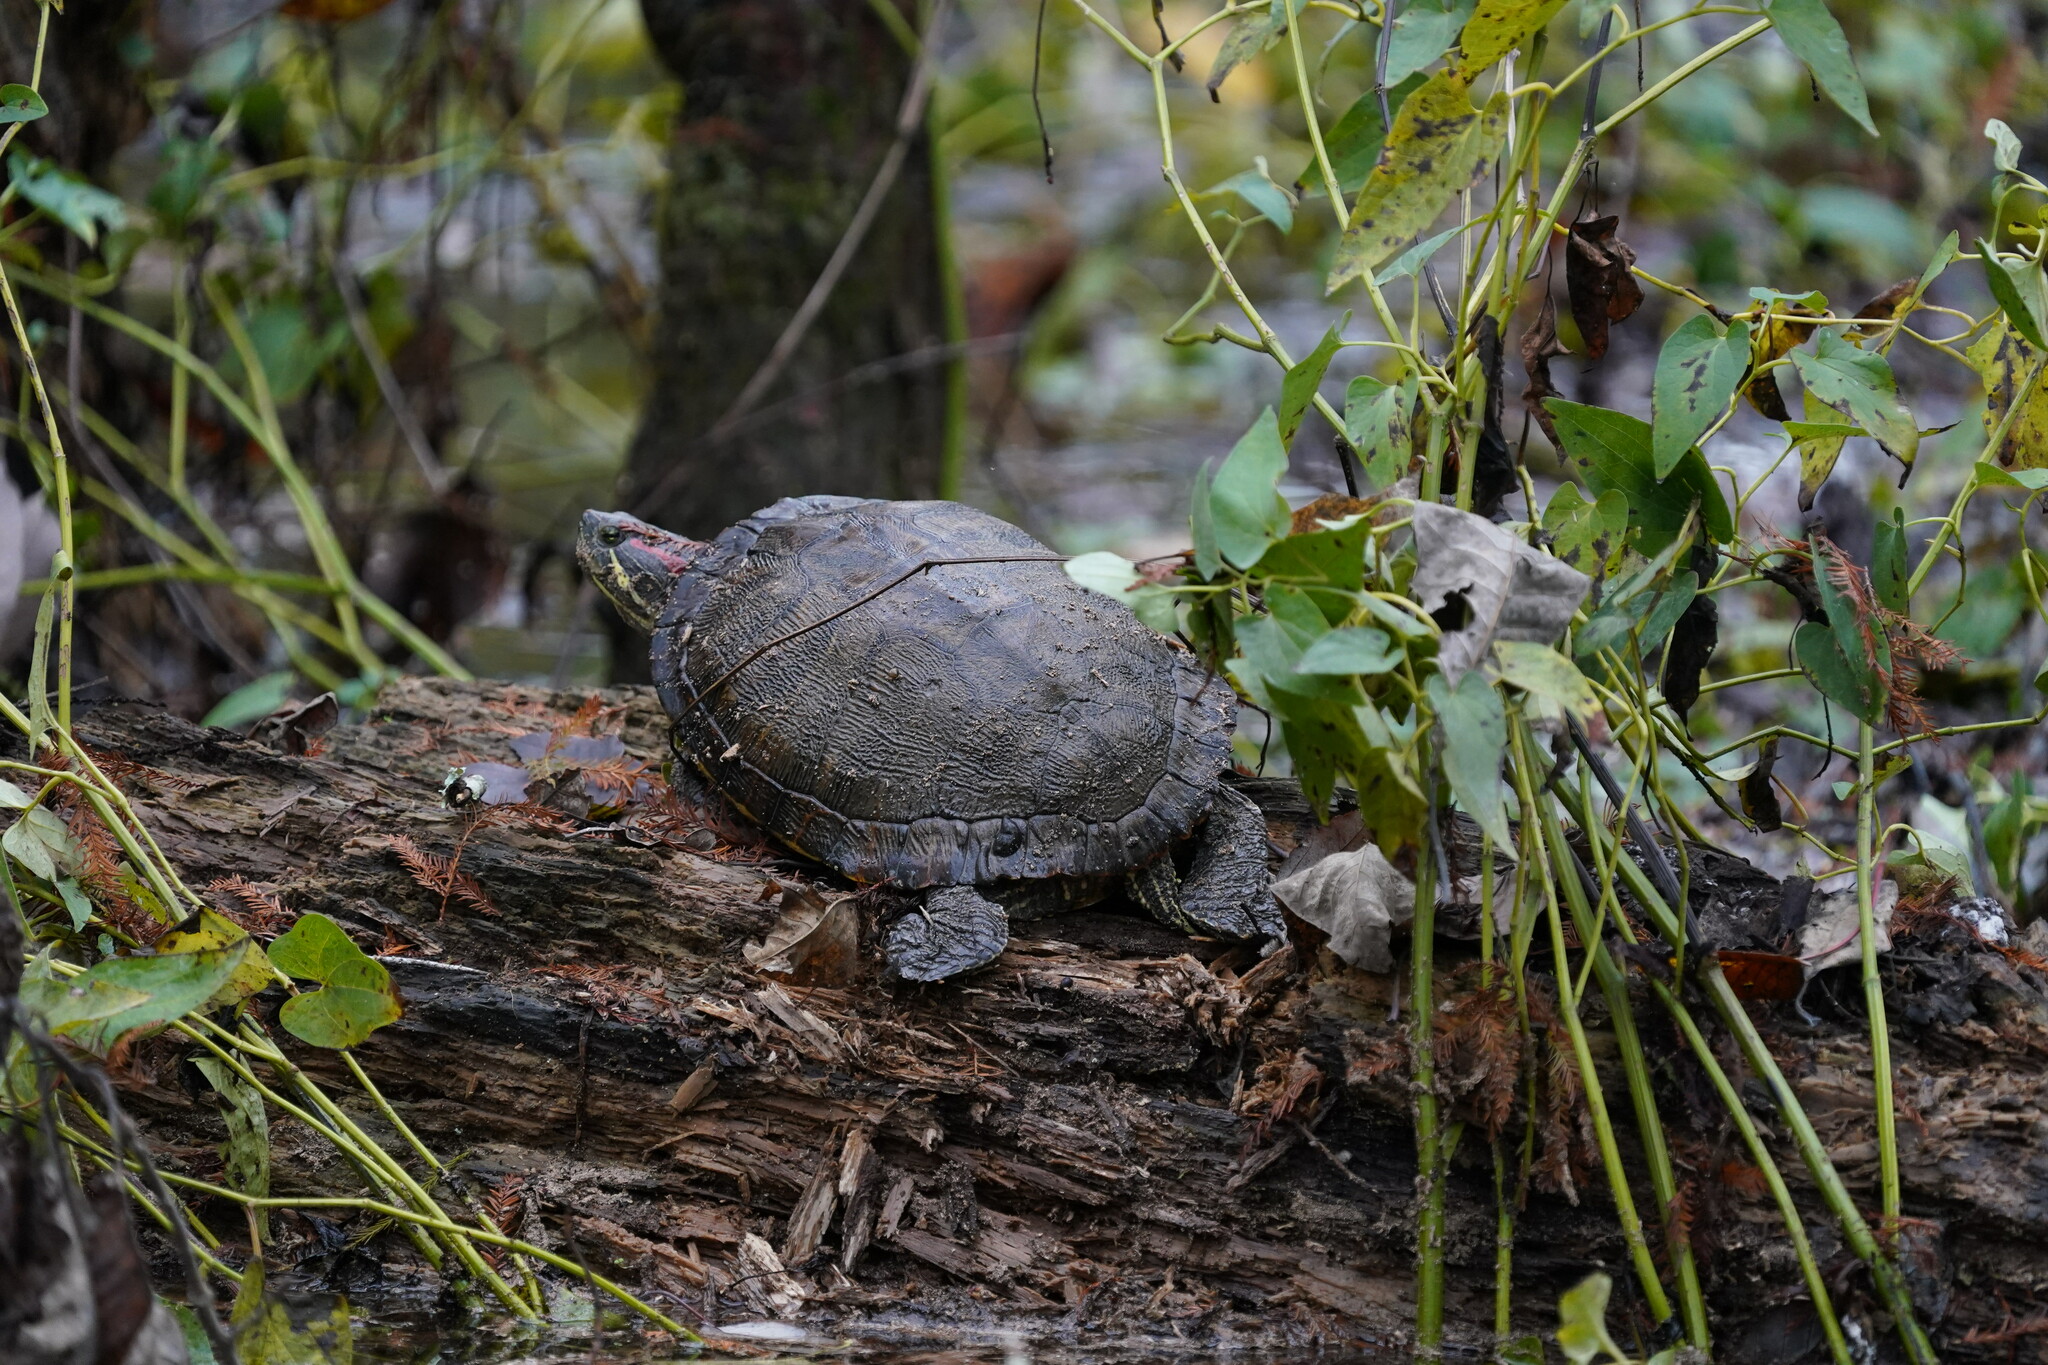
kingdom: Animalia
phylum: Chordata
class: Testudines
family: Emydidae
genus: Trachemys
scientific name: Trachemys scripta
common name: Slider
